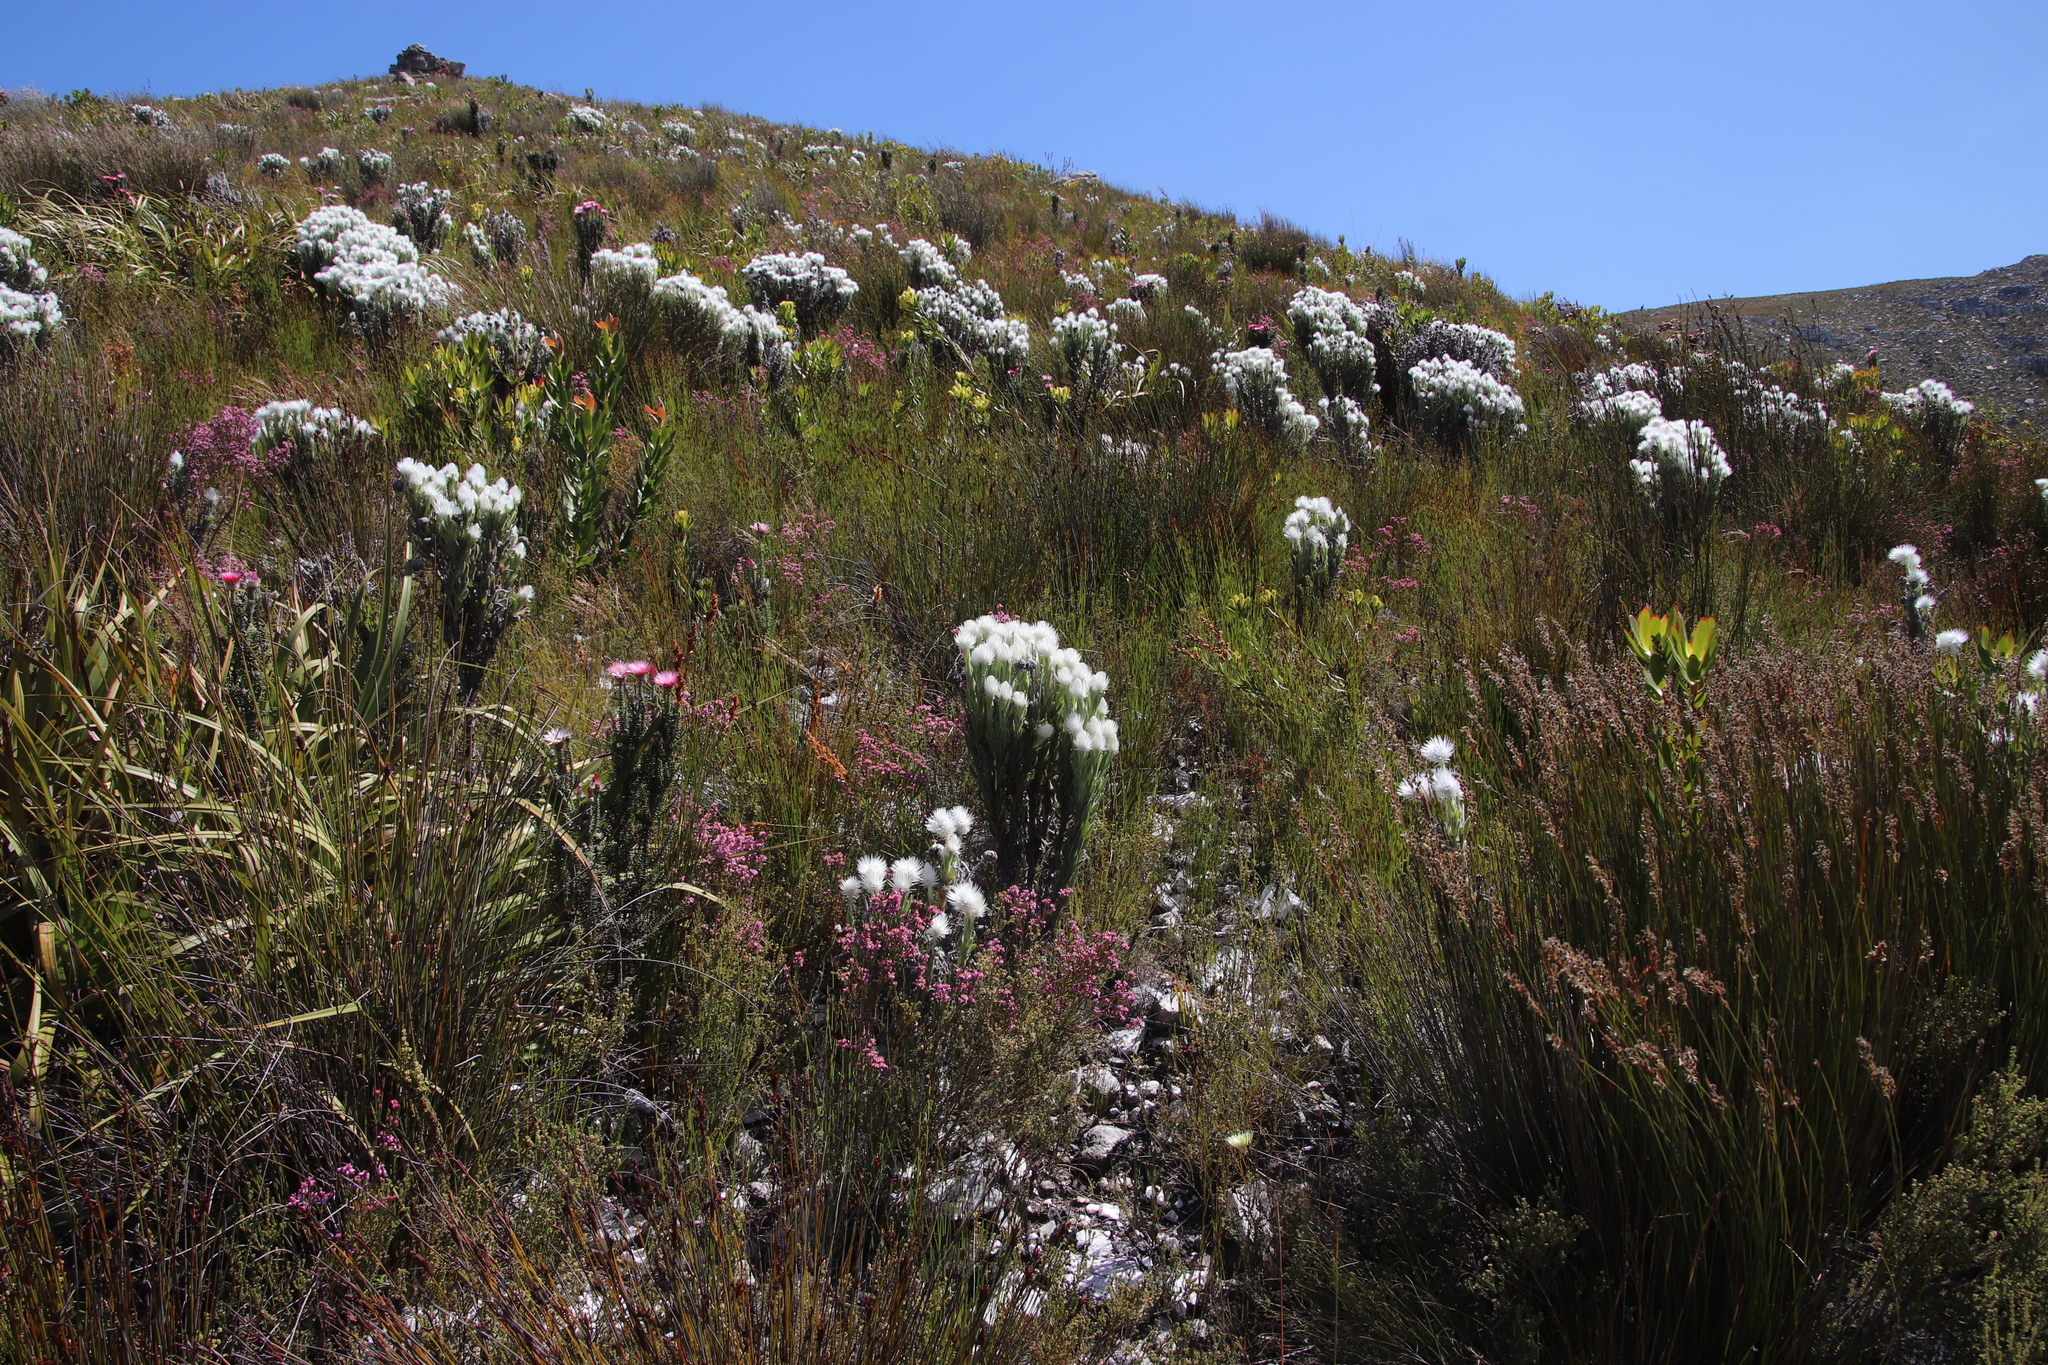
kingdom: Plantae
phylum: Tracheophyta
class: Magnoliopsida
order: Asterales
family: Asteraceae
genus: Syncarpha
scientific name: Syncarpha vestita
